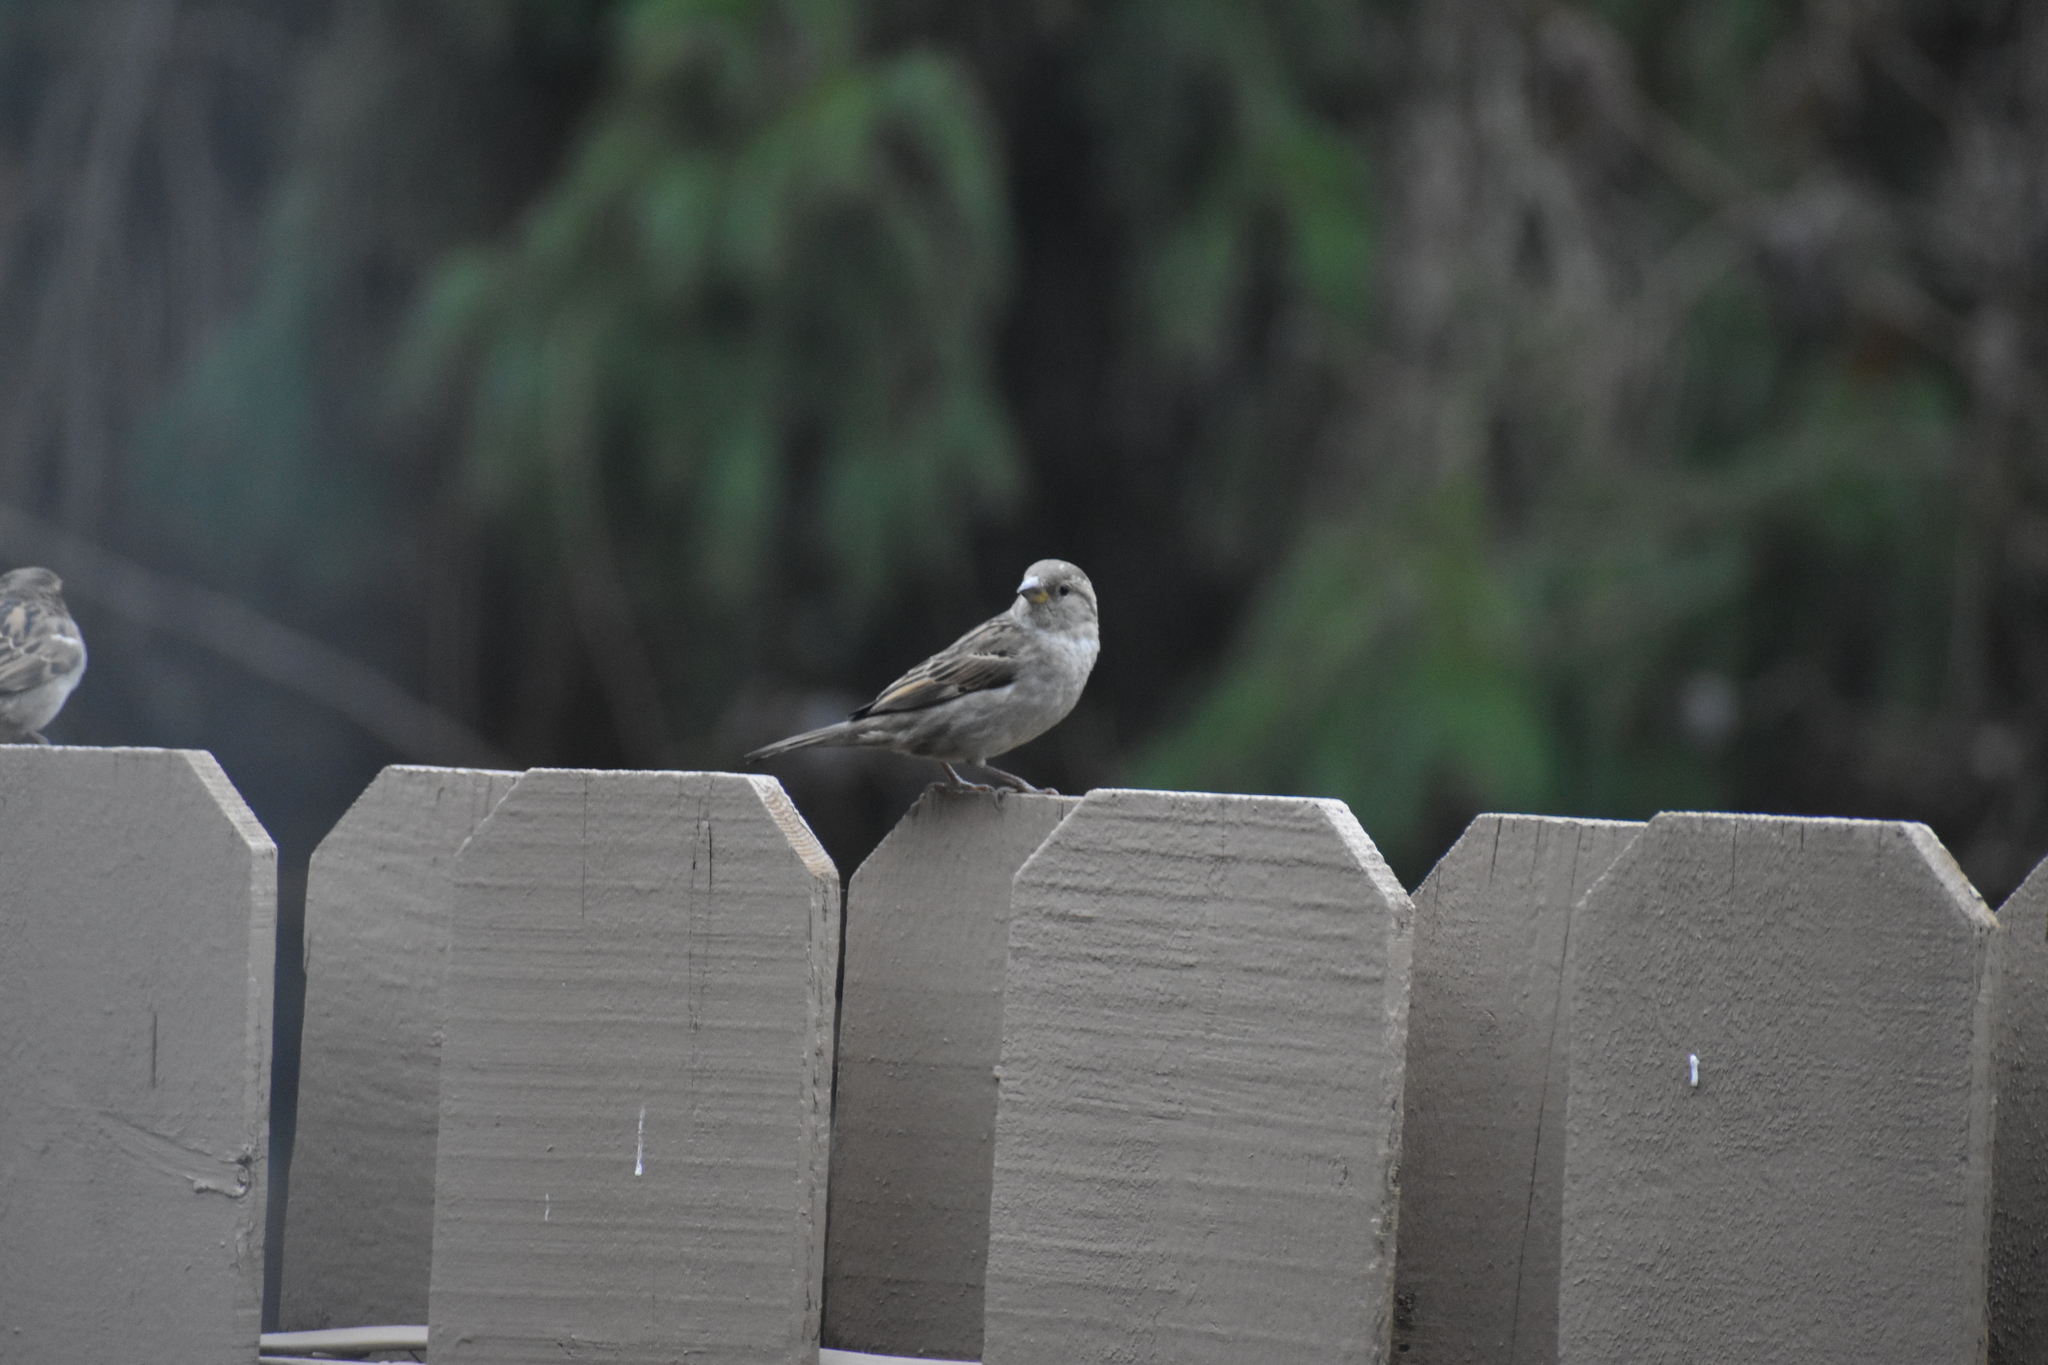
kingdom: Animalia
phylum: Chordata
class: Aves
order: Passeriformes
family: Passeridae
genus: Passer
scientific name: Passer domesticus
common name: House sparrow
